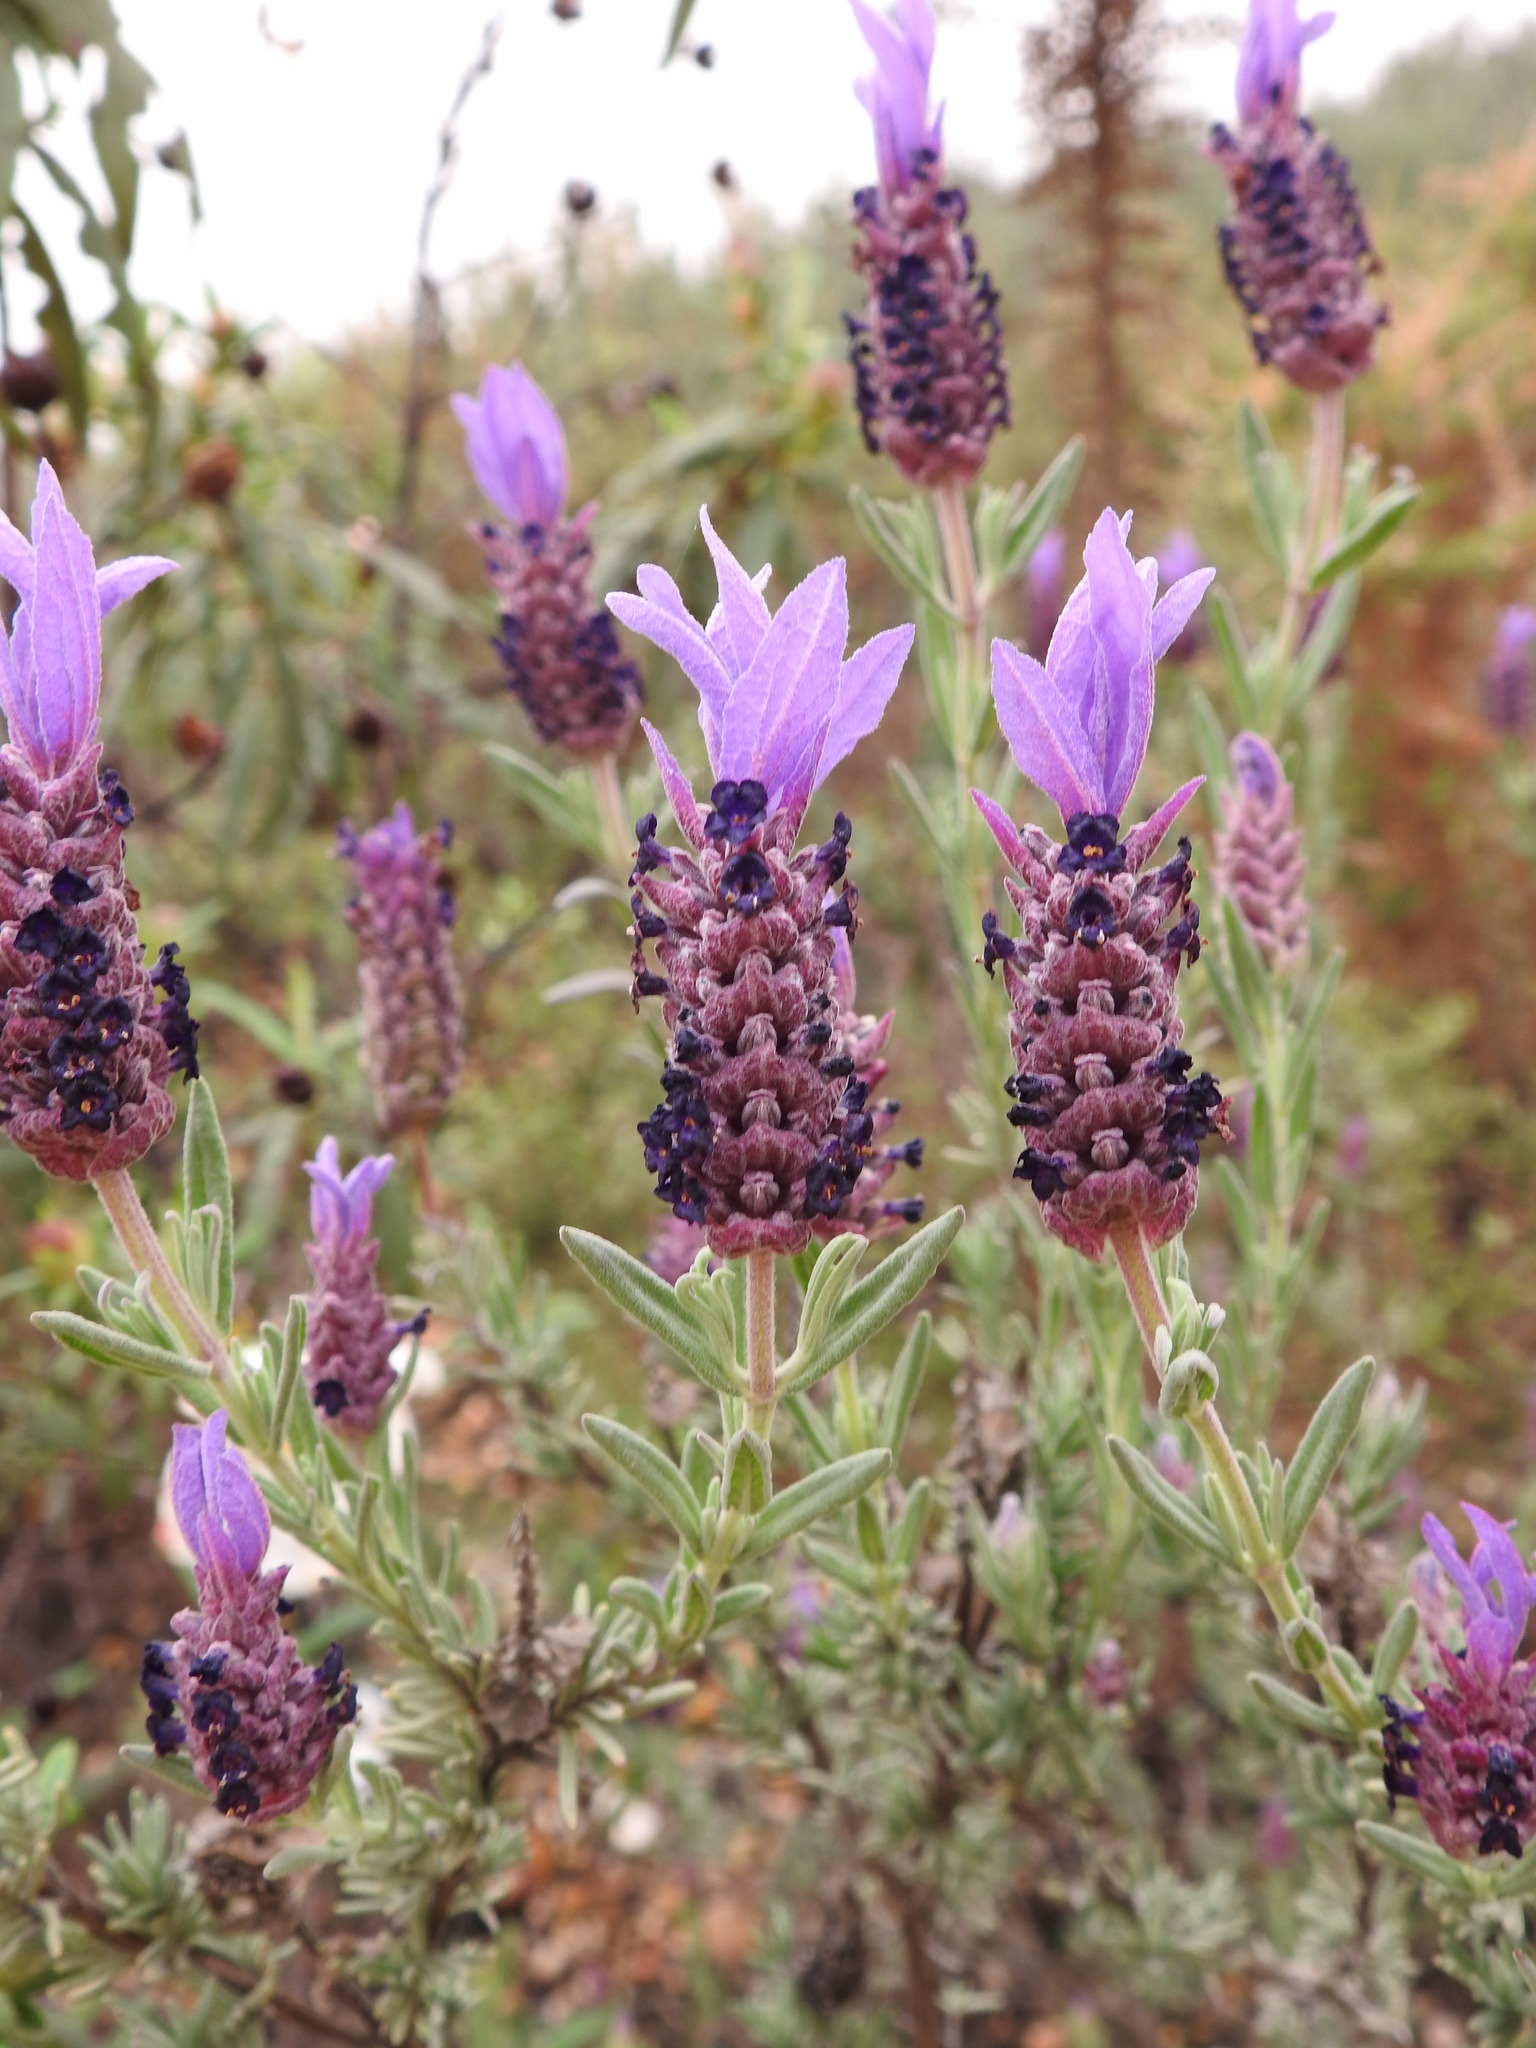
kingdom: Plantae
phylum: Tracheophyta
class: Magnoliopsida
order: Lamiales
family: Lamiaceae
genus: Lavandula
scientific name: Lavandula stoechas
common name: French lavender
